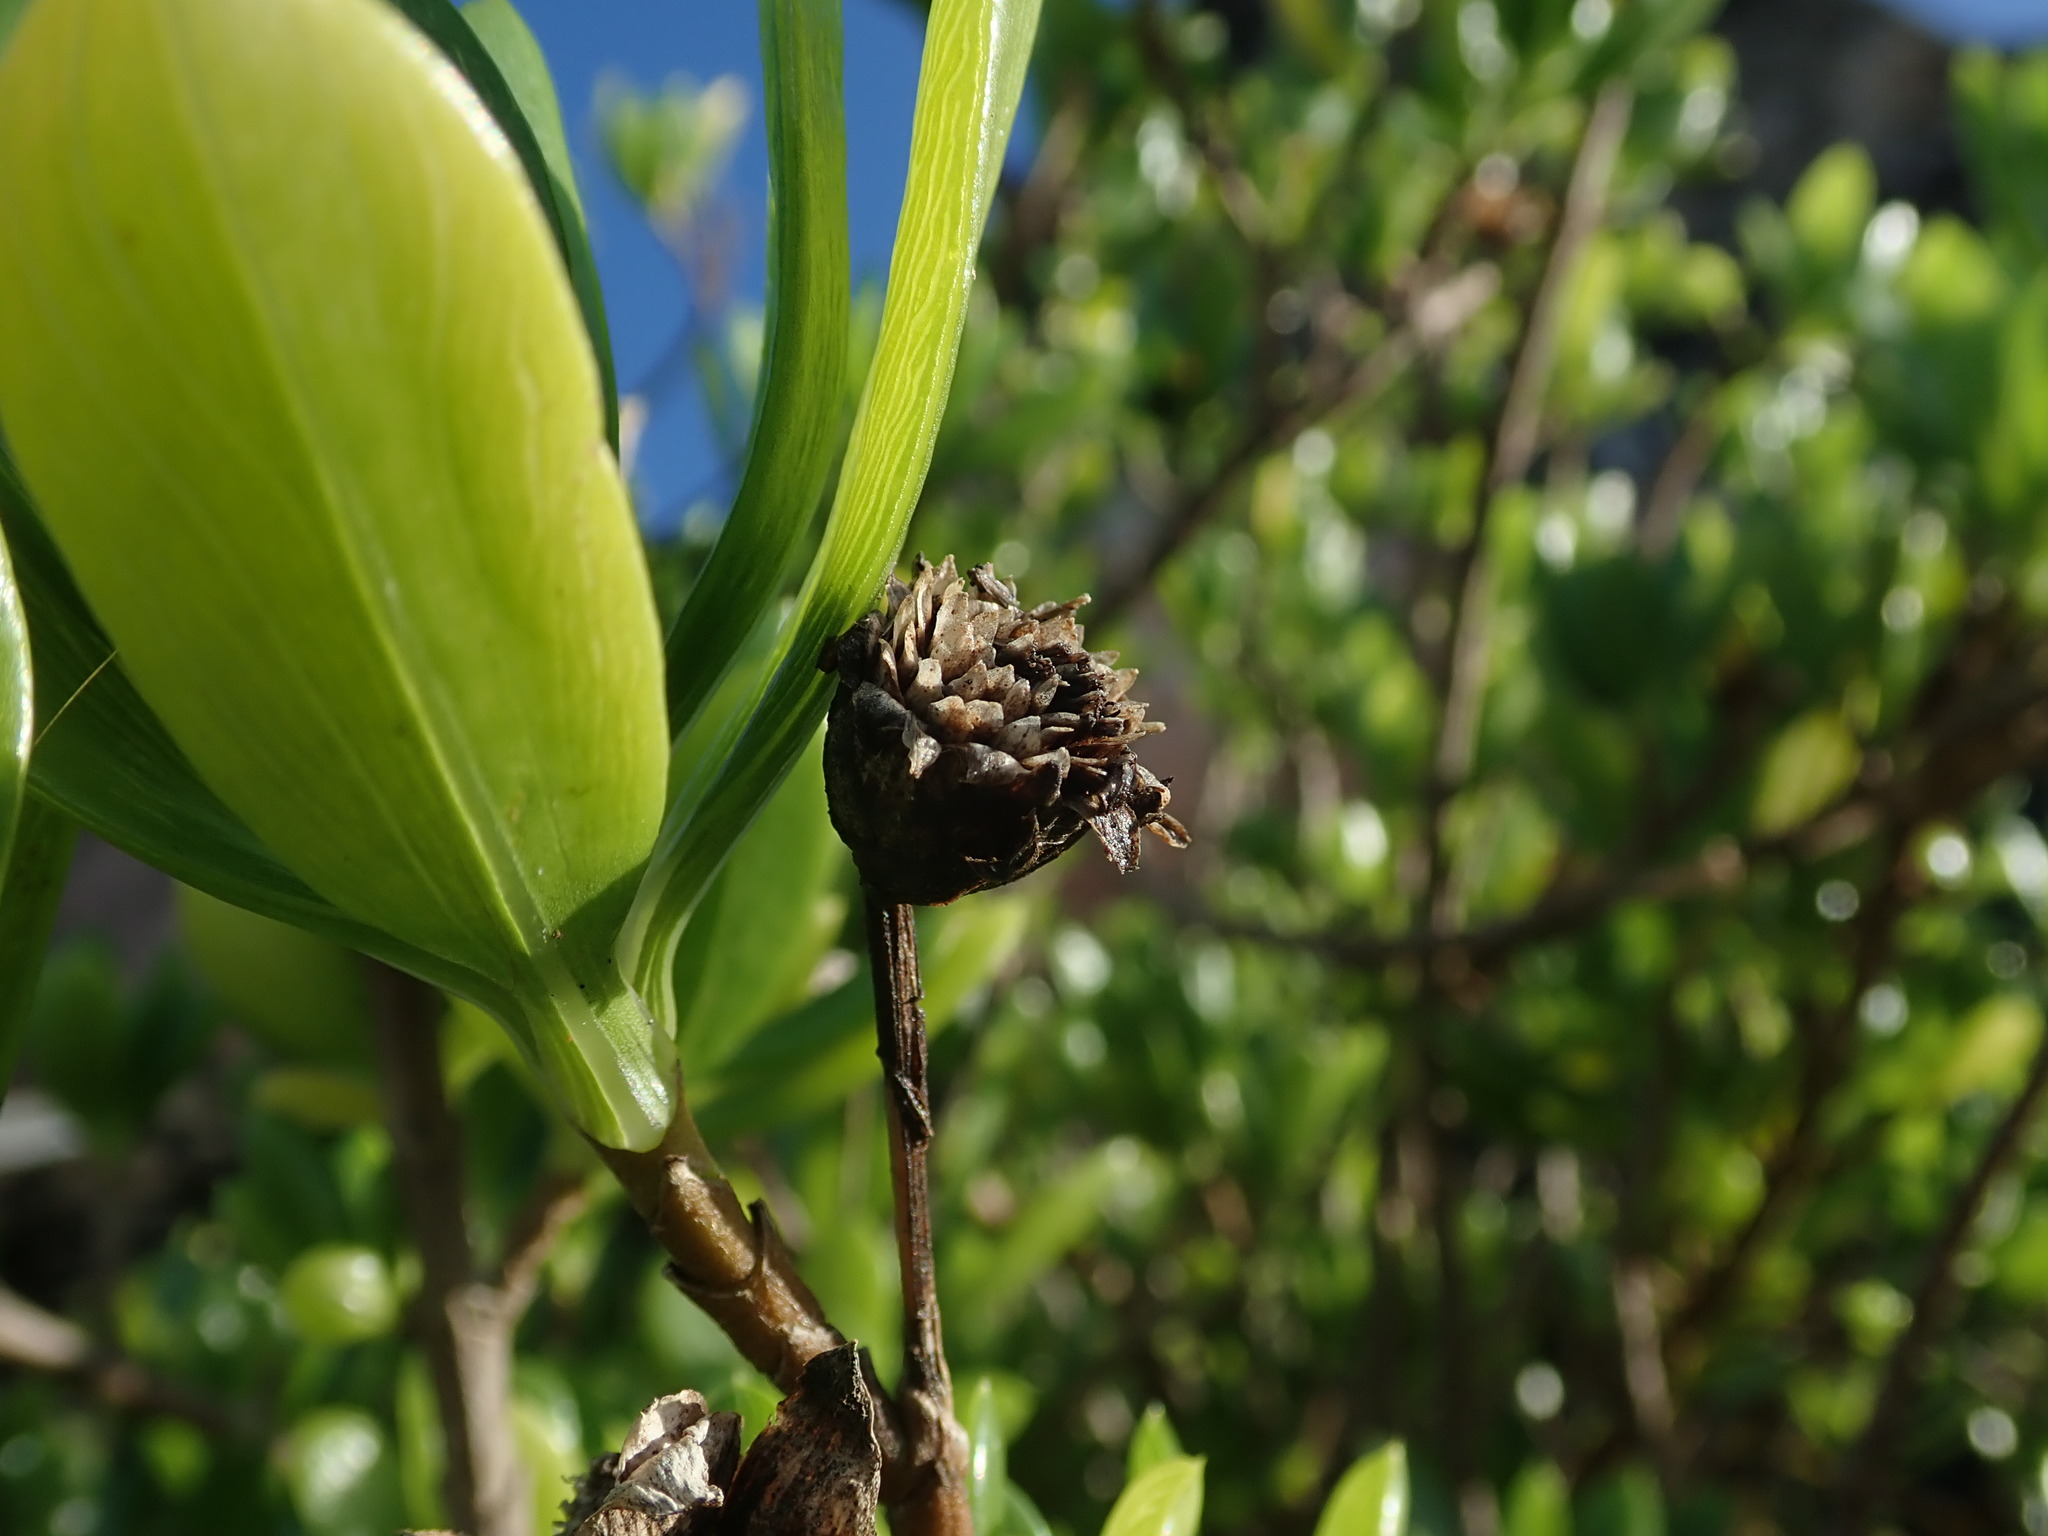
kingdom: Plantae
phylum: Tracheophyta
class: Magnoliopsida
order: Asterales
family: Asteraceae
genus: Borrichia
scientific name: Borrichia arborescens
